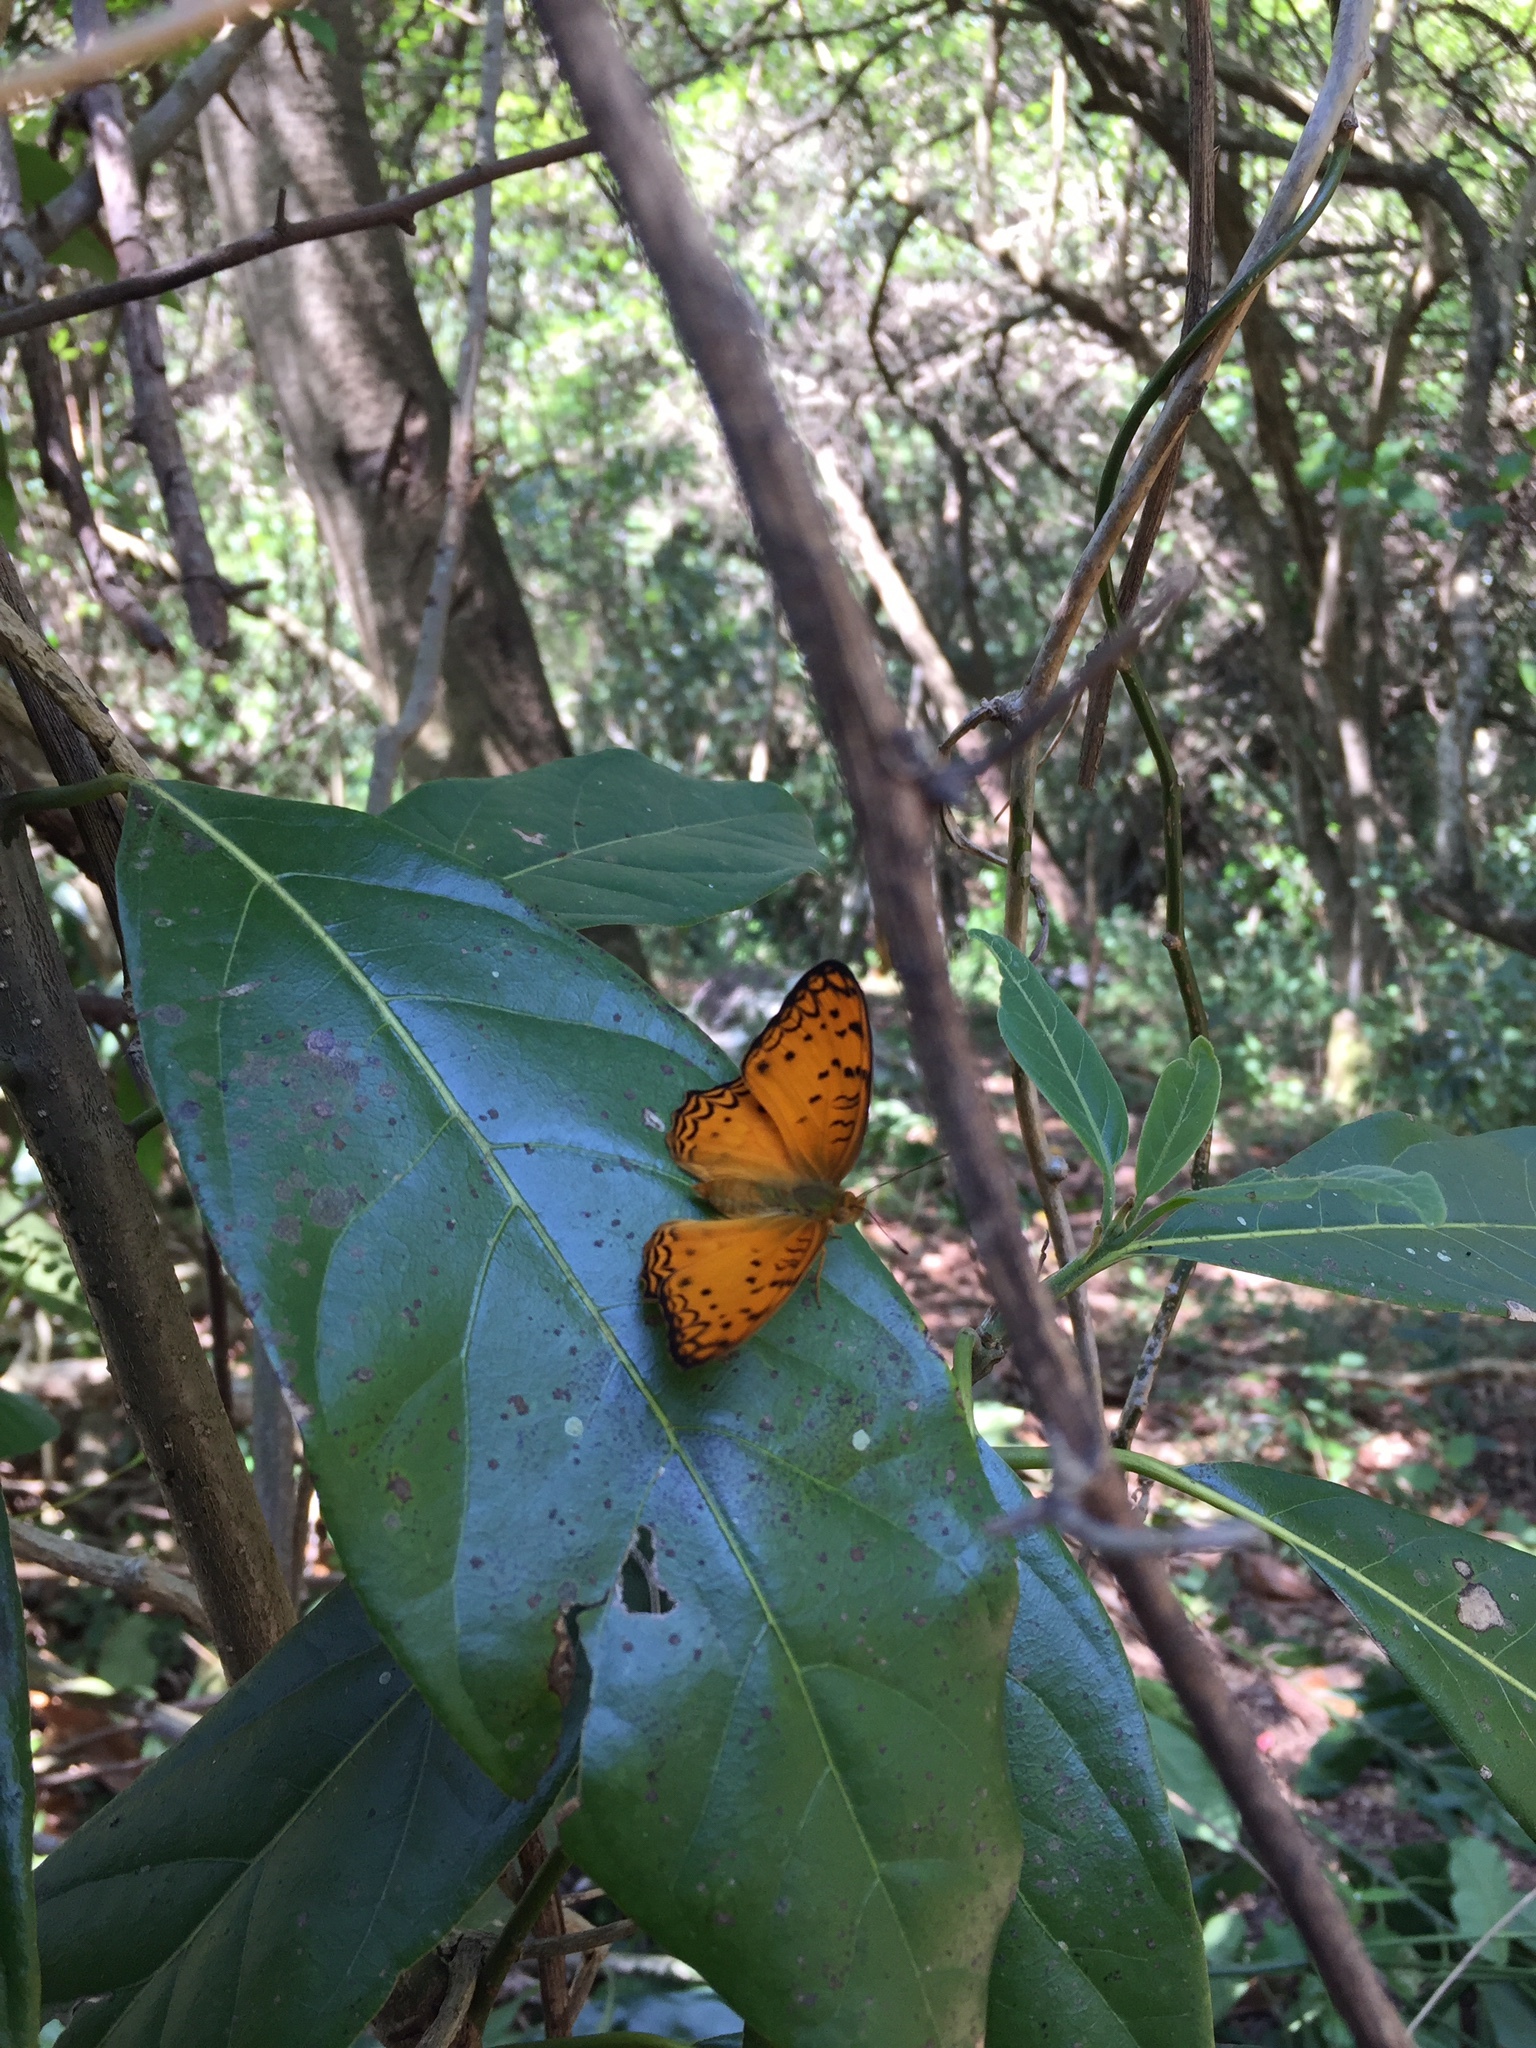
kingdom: Animalia
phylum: Arthropoda
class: Insecta
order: Lepidoptera
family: Nymphalidae
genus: Phalanta
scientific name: Phalanta columbina
